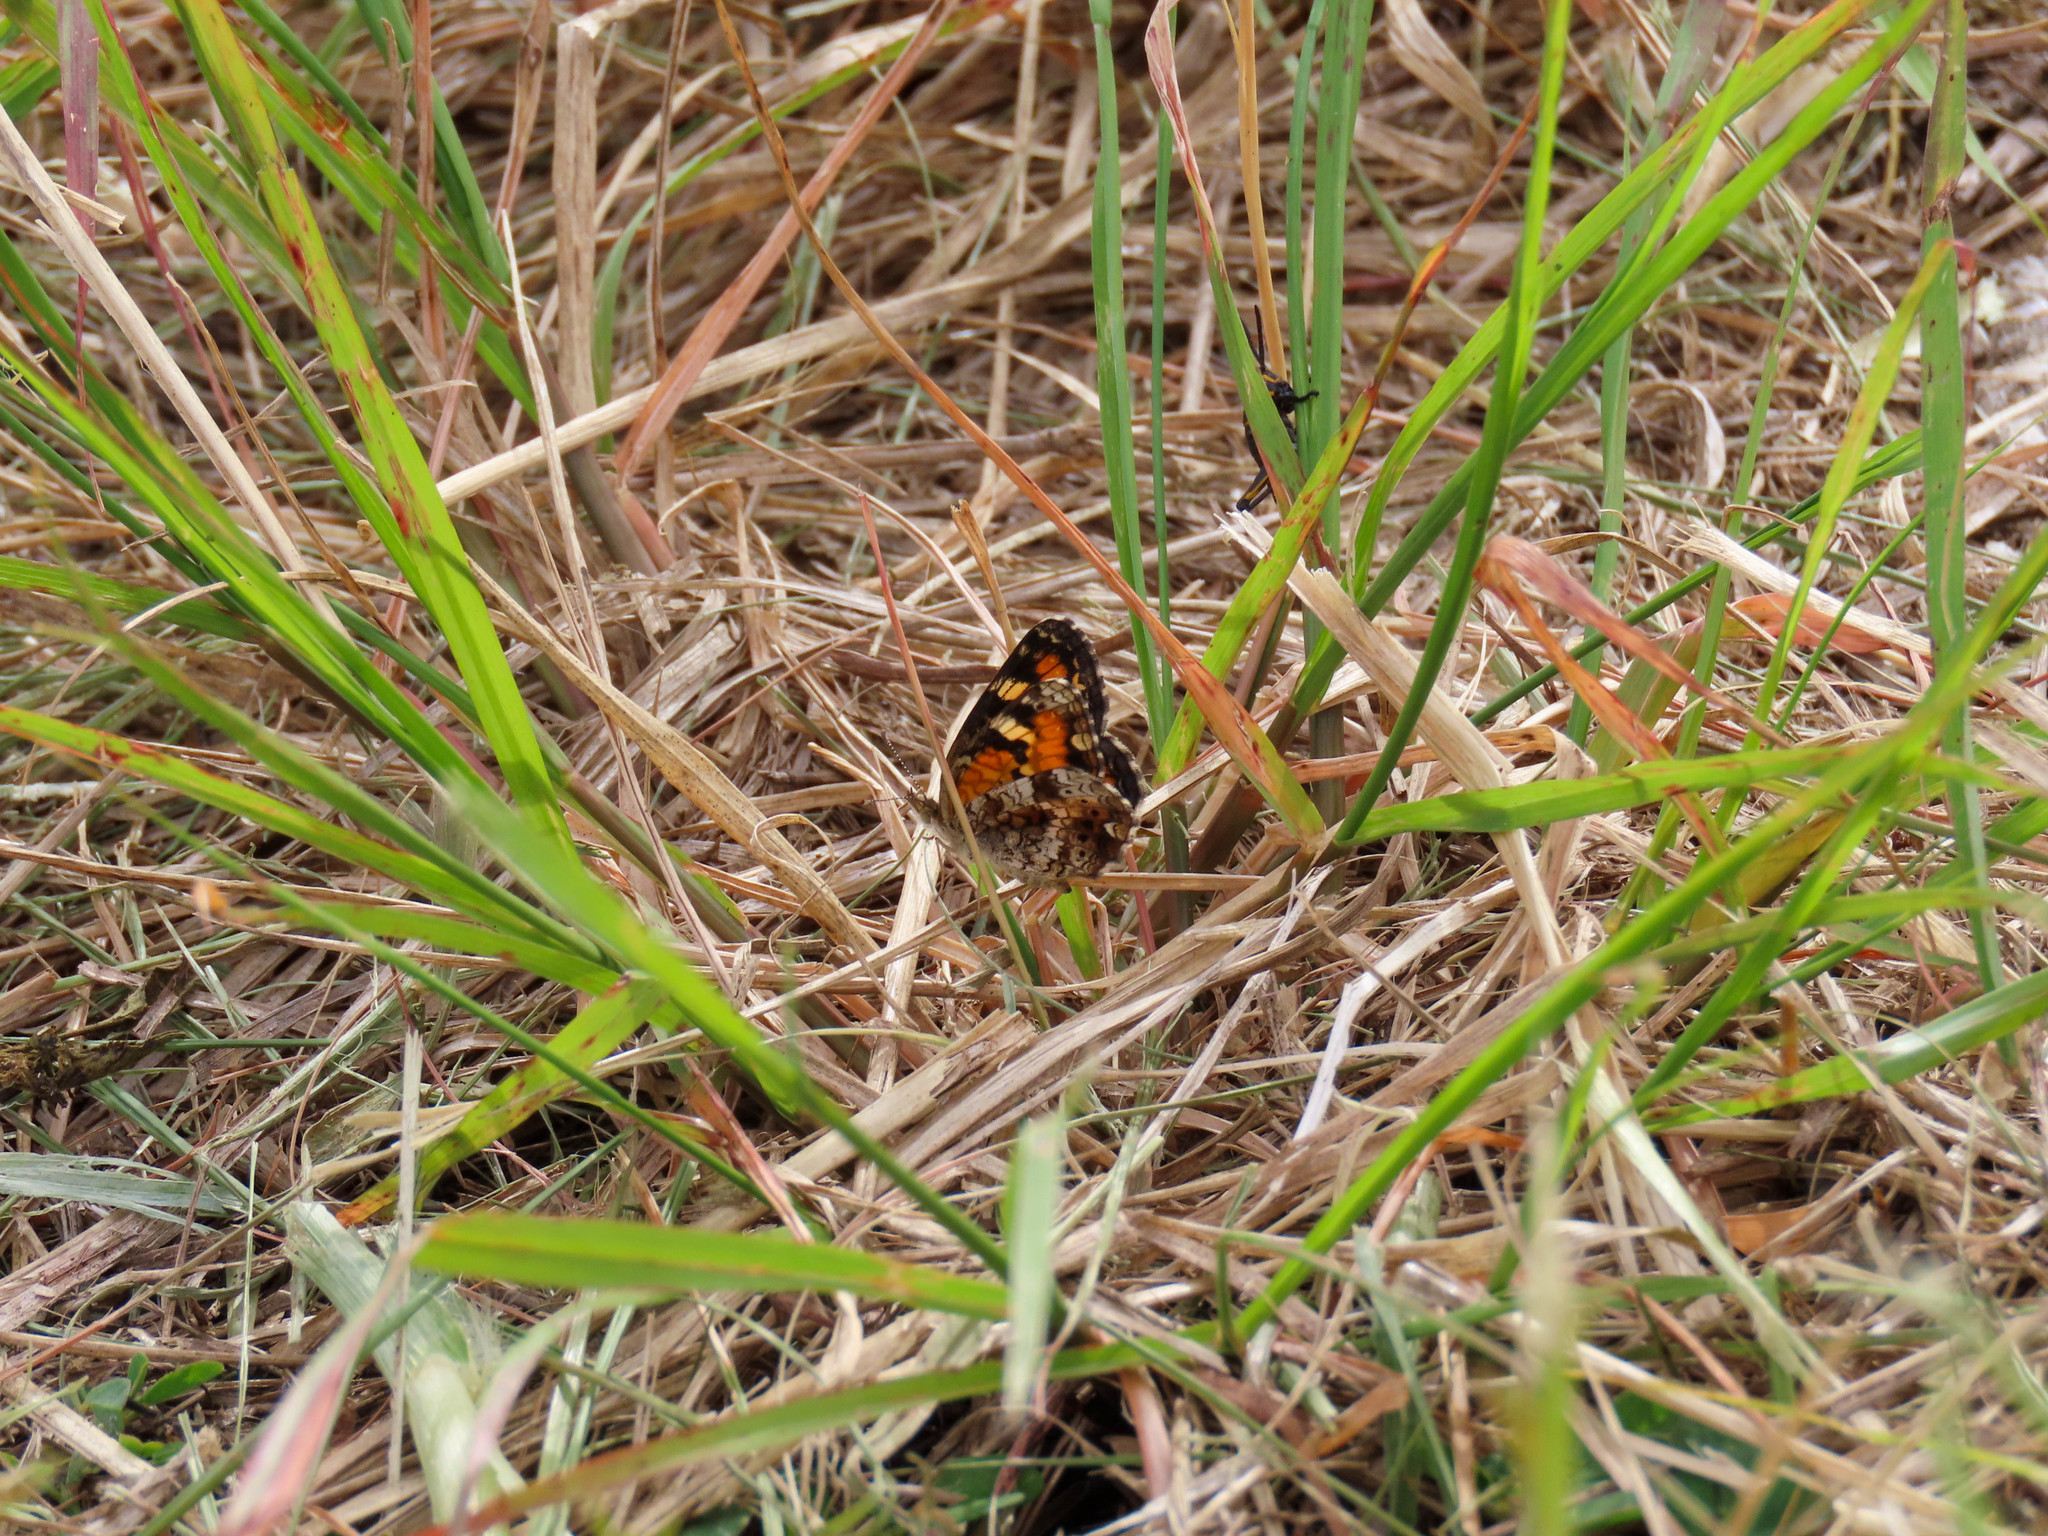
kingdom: Animalia
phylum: Arthropoda
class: Insecta
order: Lepidoptera
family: Nymphalidae
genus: Phyciodes
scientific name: Phyciodes phaon
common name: Phaon crescent
